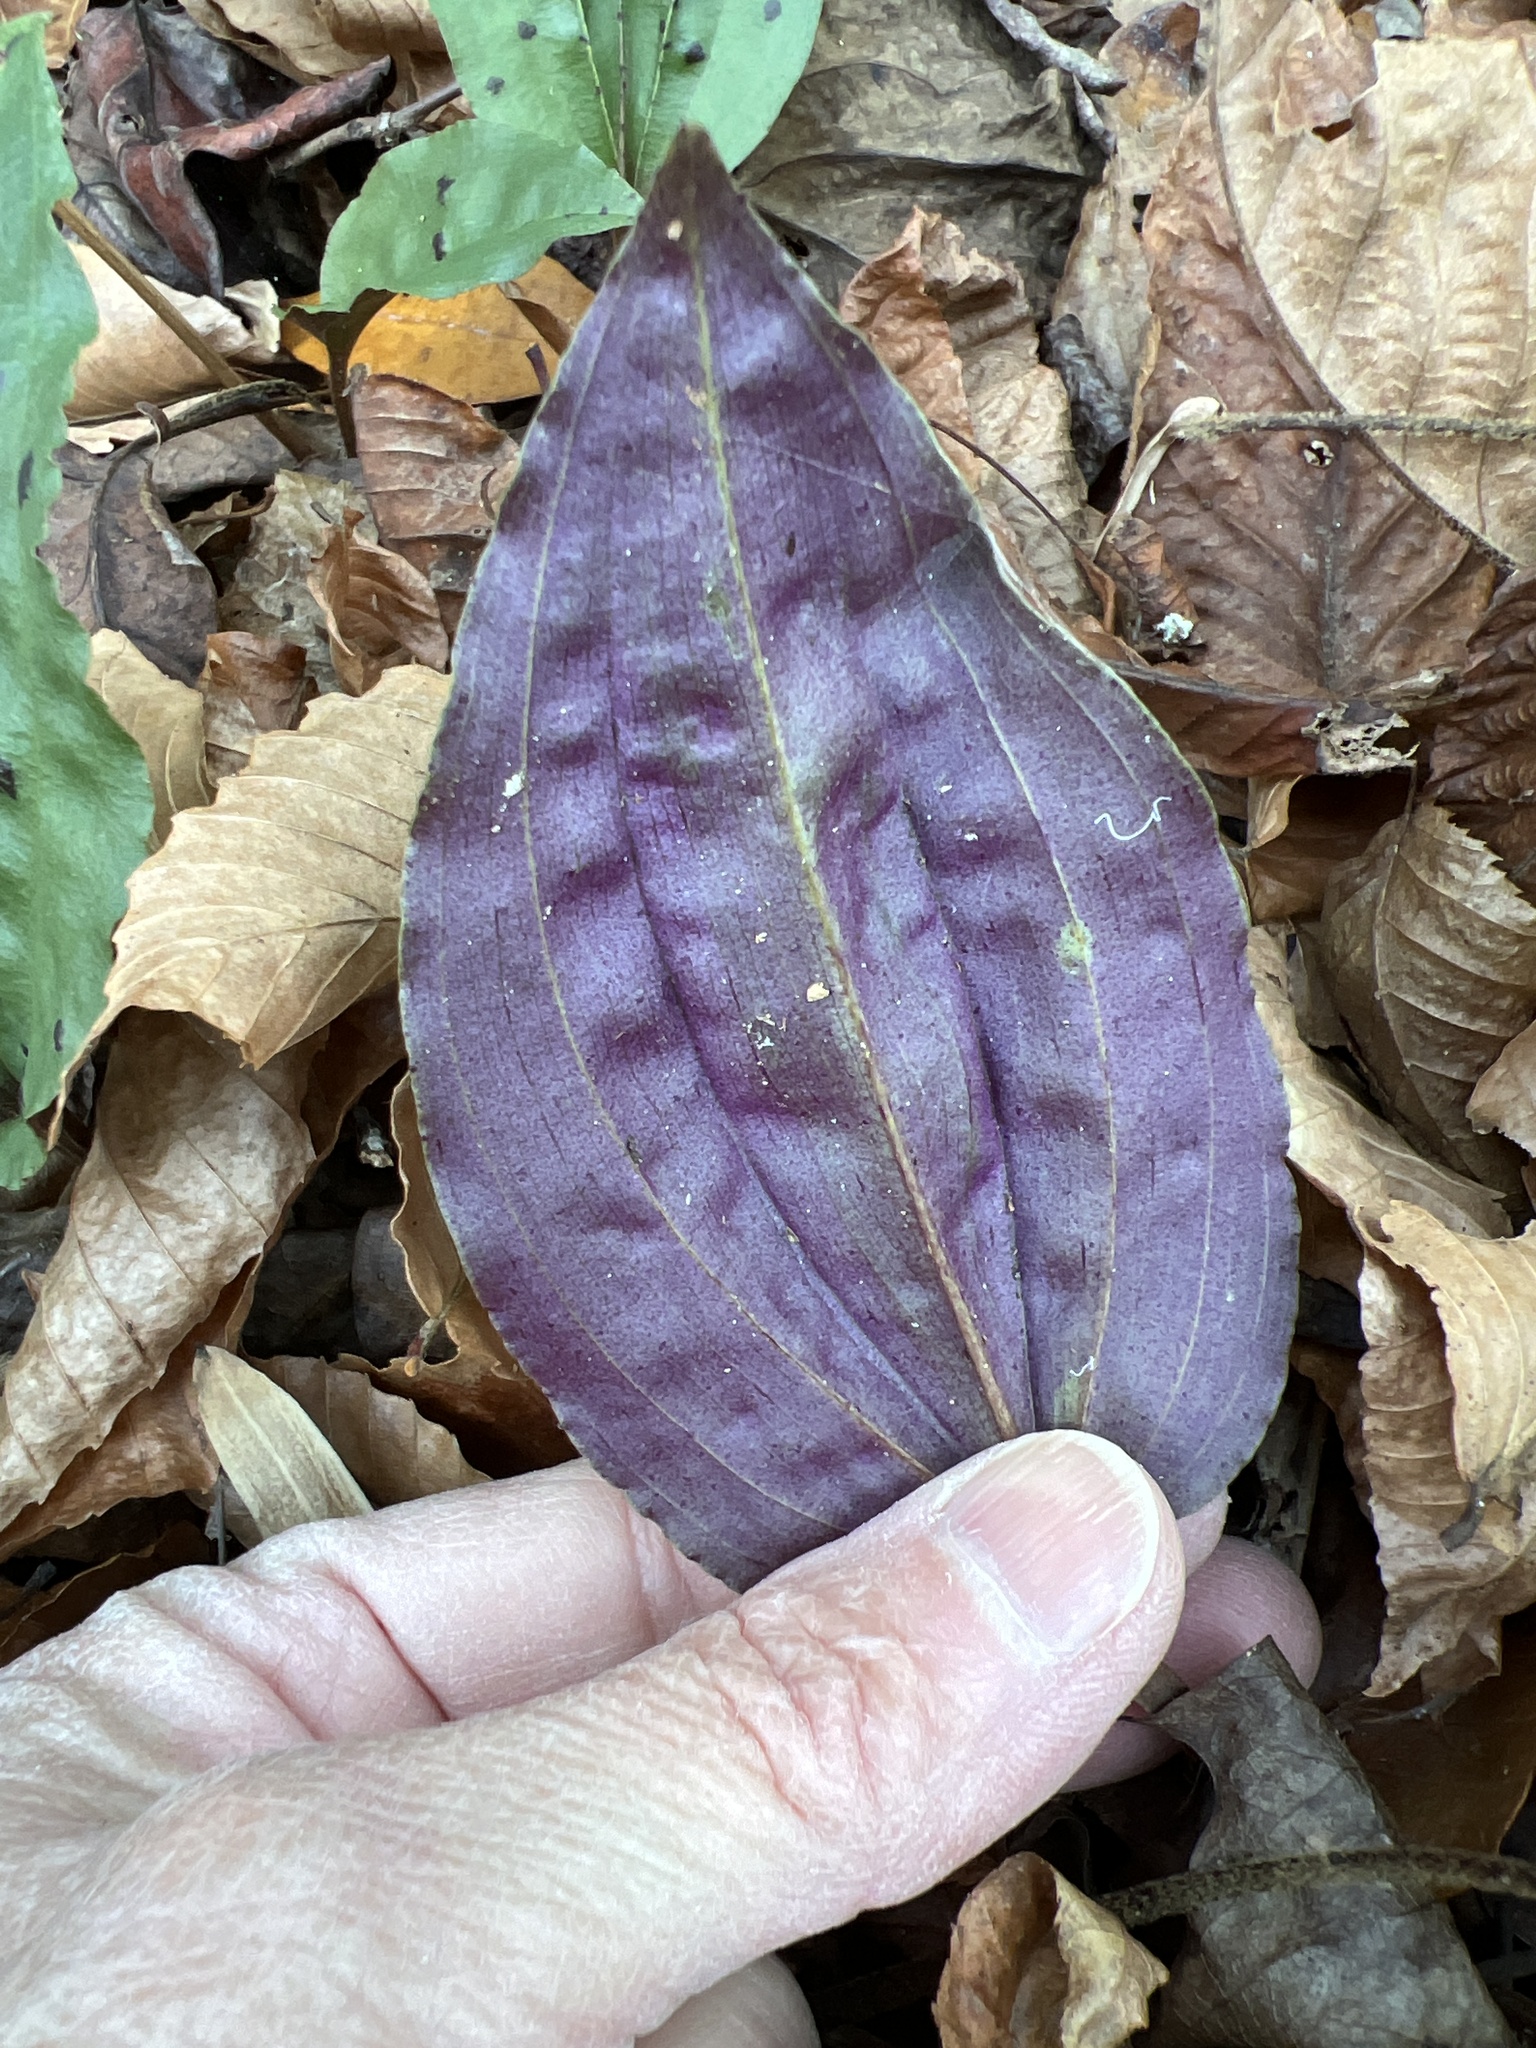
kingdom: Plantae
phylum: Tracheophyta
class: Liliopsida
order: Asparagales
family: Orchidaceae
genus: Tipularia
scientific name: Tipularia discolor
